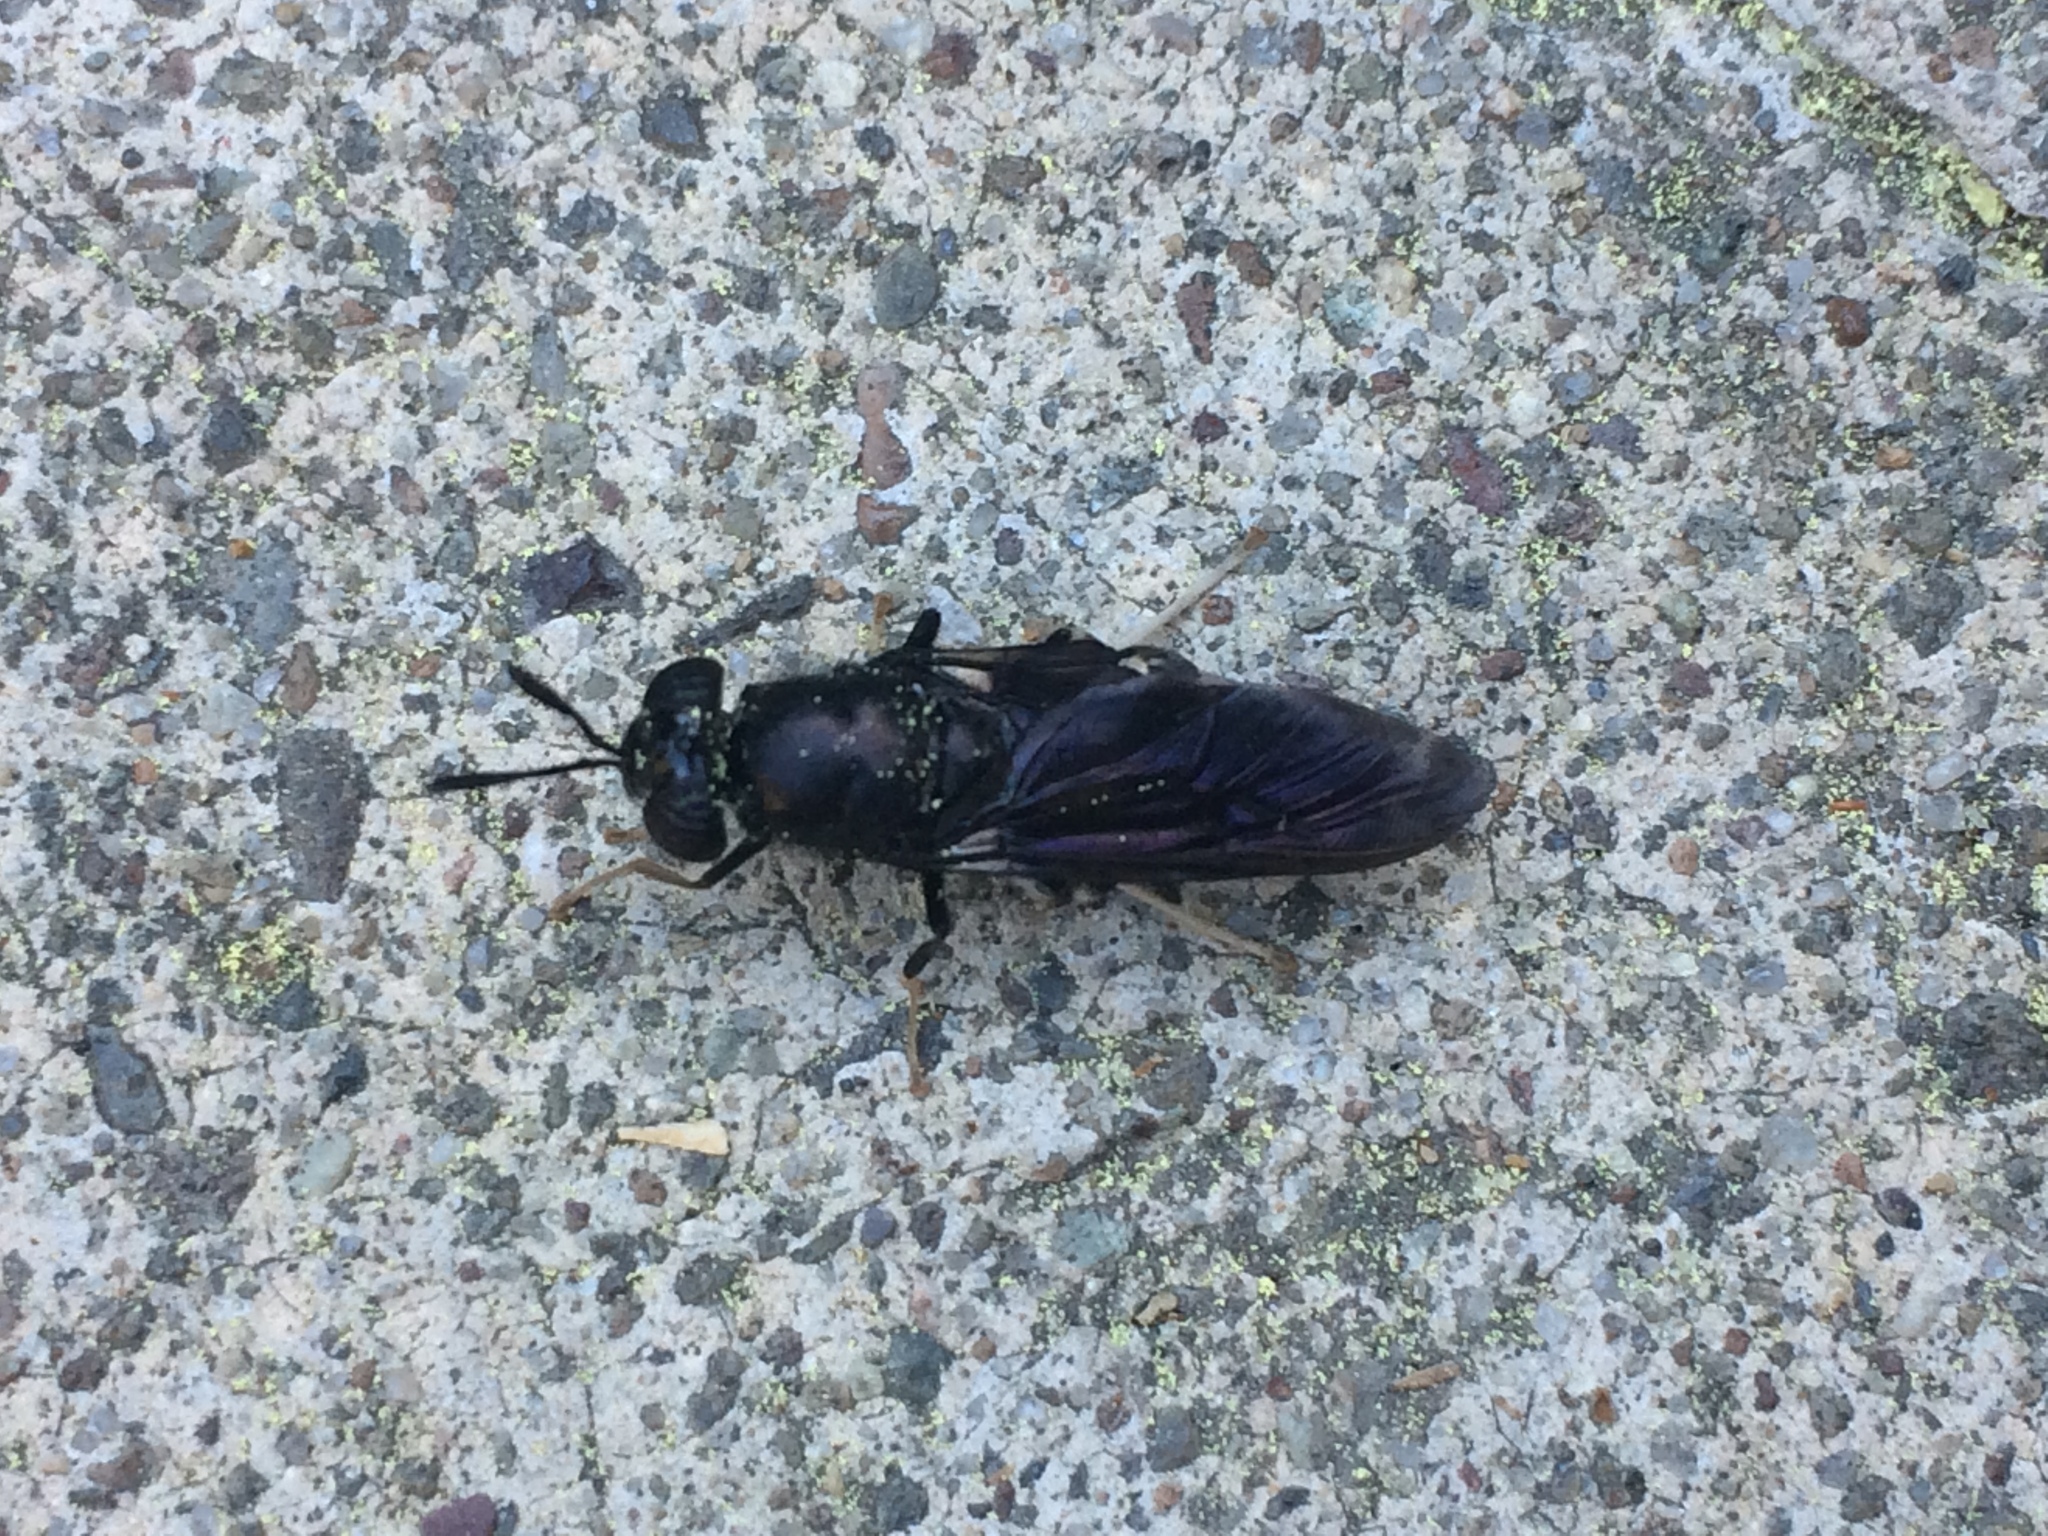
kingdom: Animalia
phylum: Arthropoda
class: Insecta
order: Diptera
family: Stratiomyidae
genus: Hermetia
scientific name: Hermetia illucens
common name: Black soldier fly
